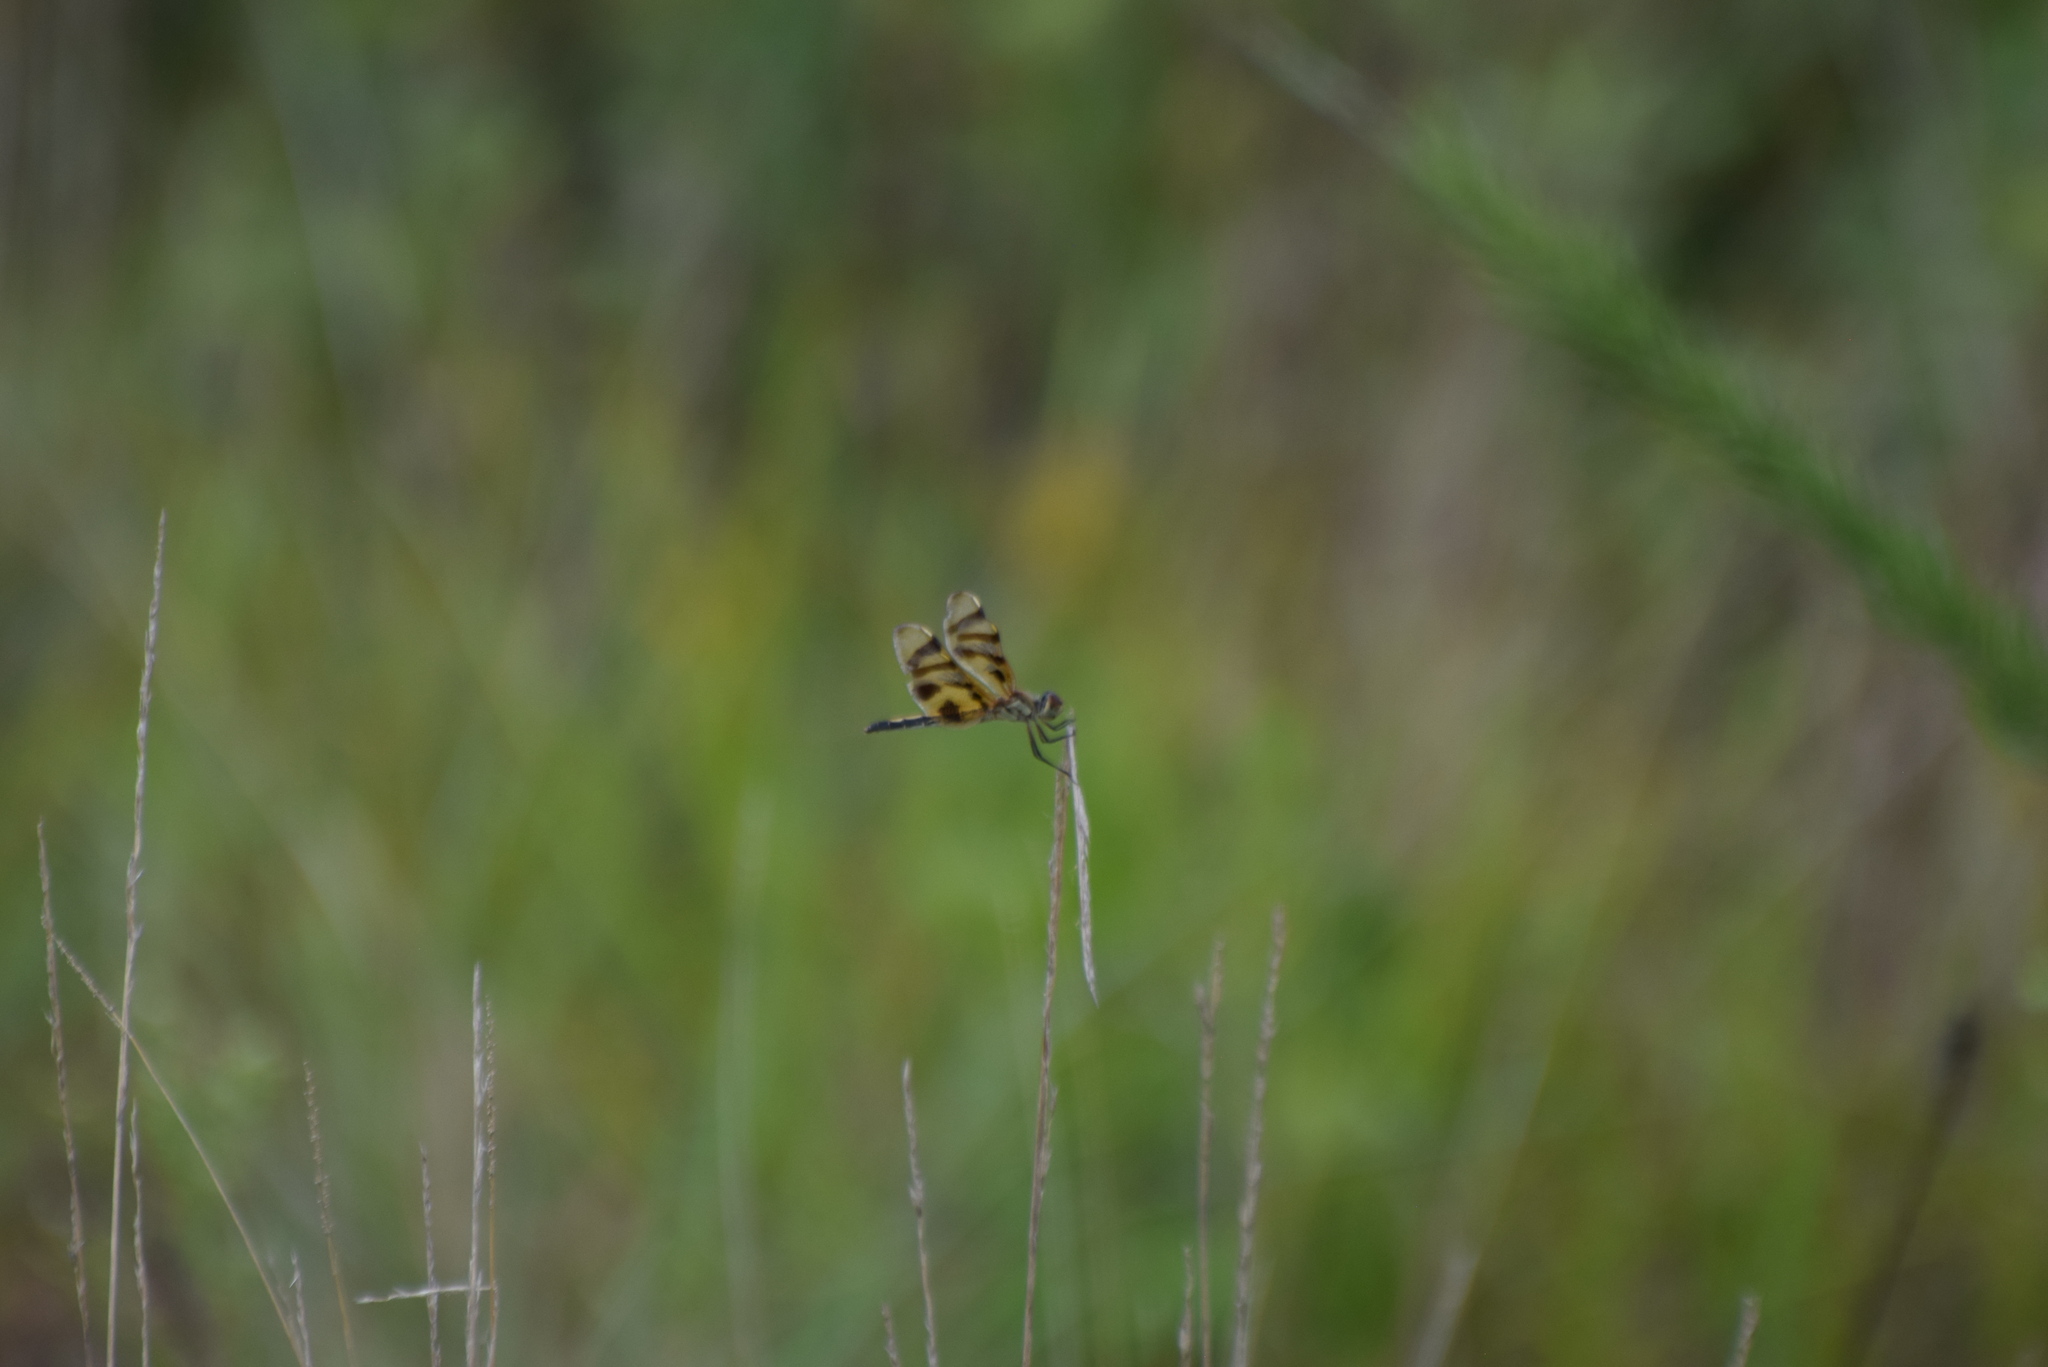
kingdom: Animalia
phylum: Arthropoda
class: Insecta
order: Odonata
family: Libellulidae
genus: Celithemis
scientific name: Celithemis eponina
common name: Halloween pennant
